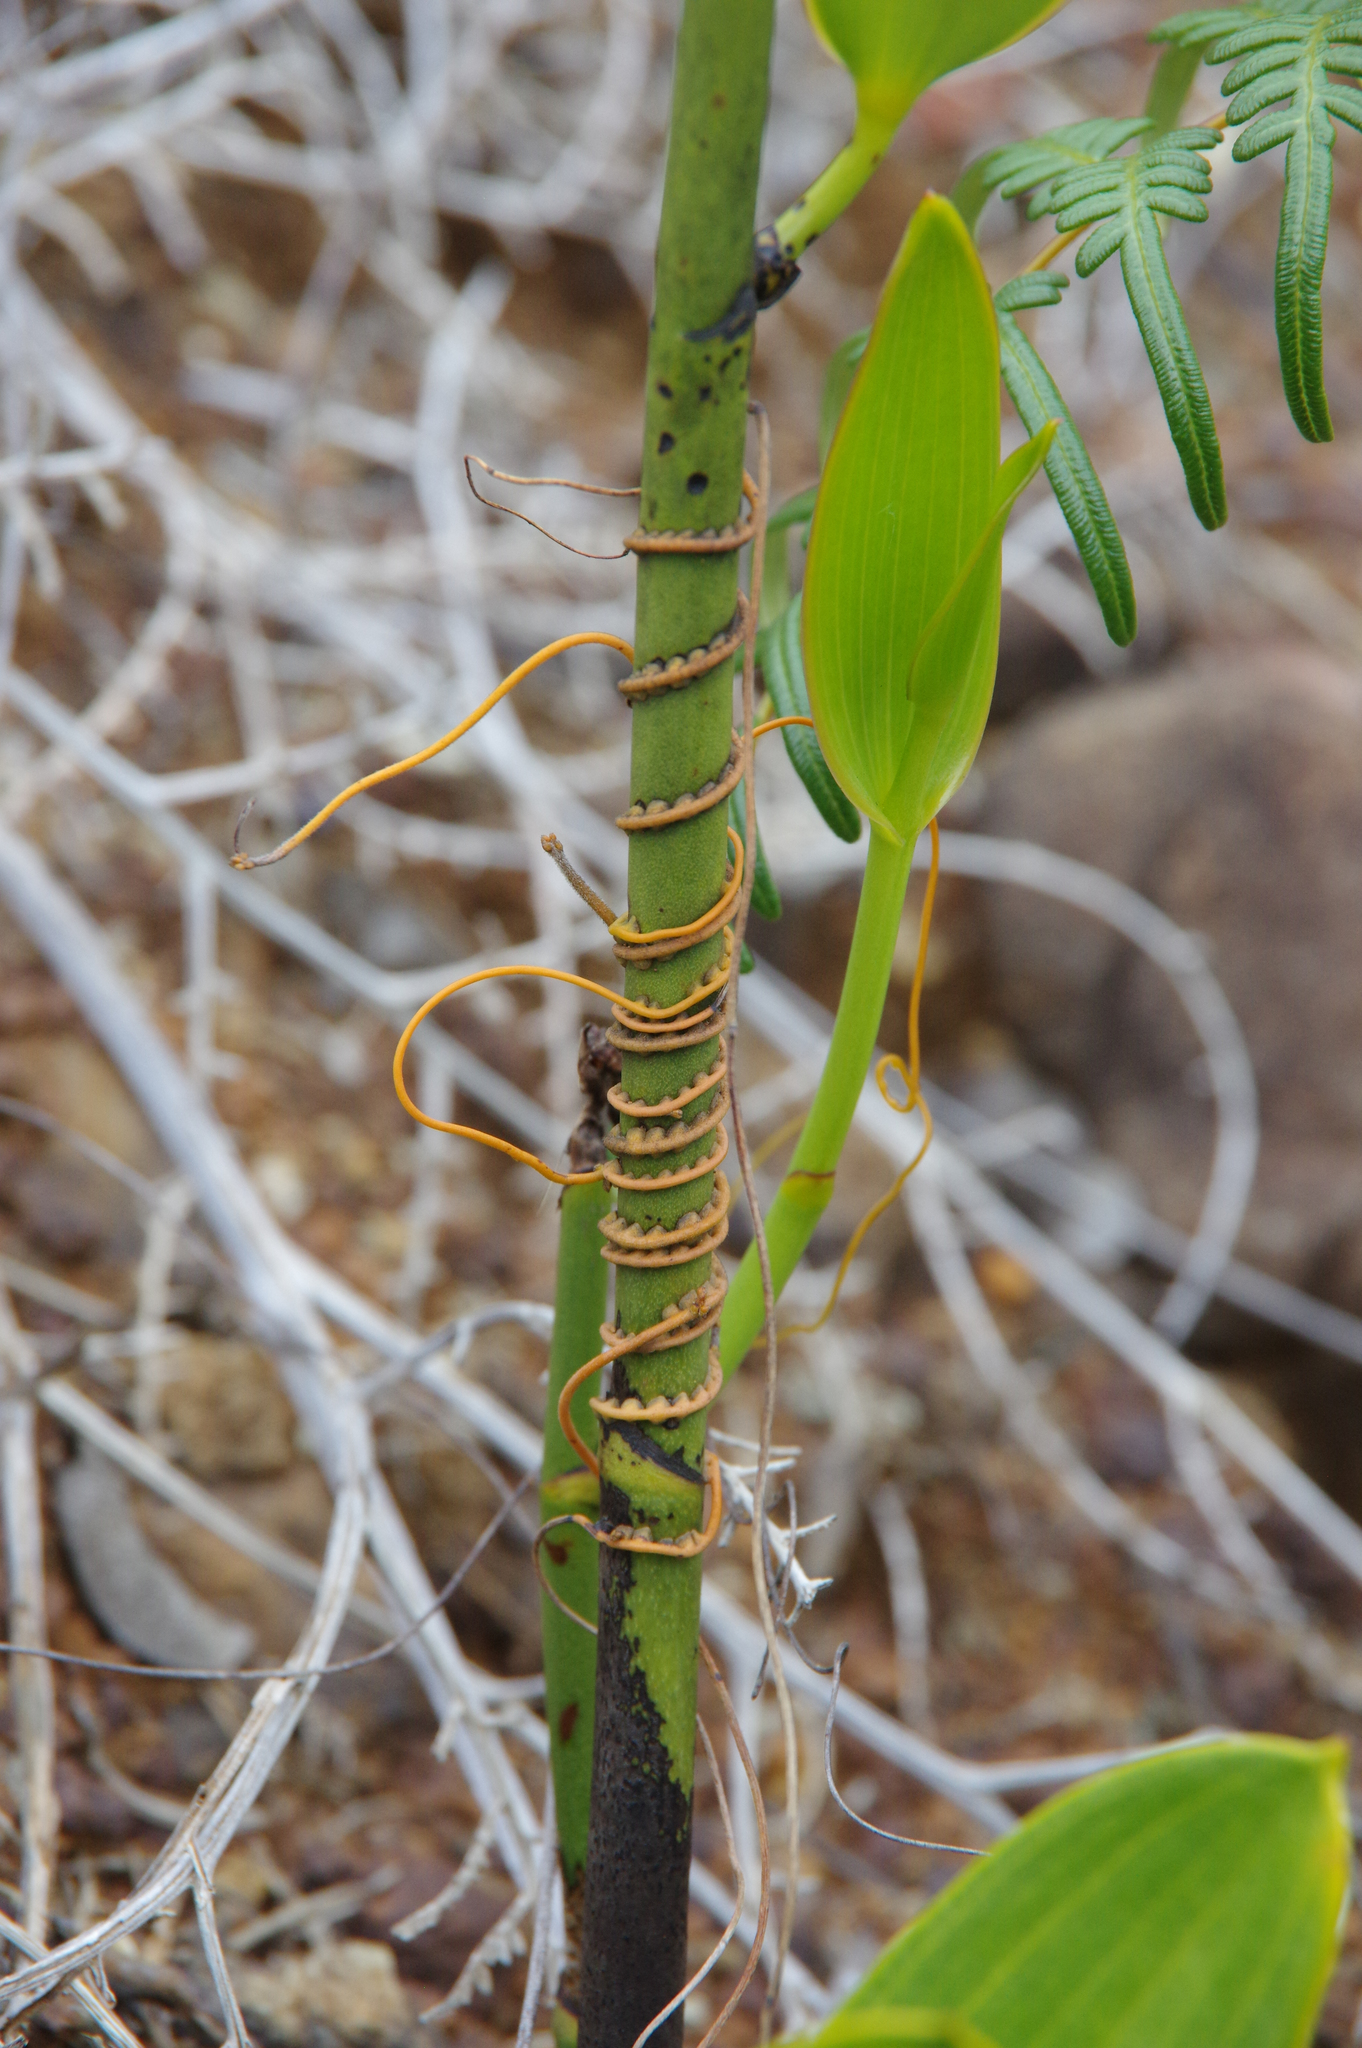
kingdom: Plantae
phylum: Tracheophyta
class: Magnoliopsida
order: Laurales
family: Lauraceae
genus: Cassytha
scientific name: Cassytha filiformis
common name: Dodder-laurel
